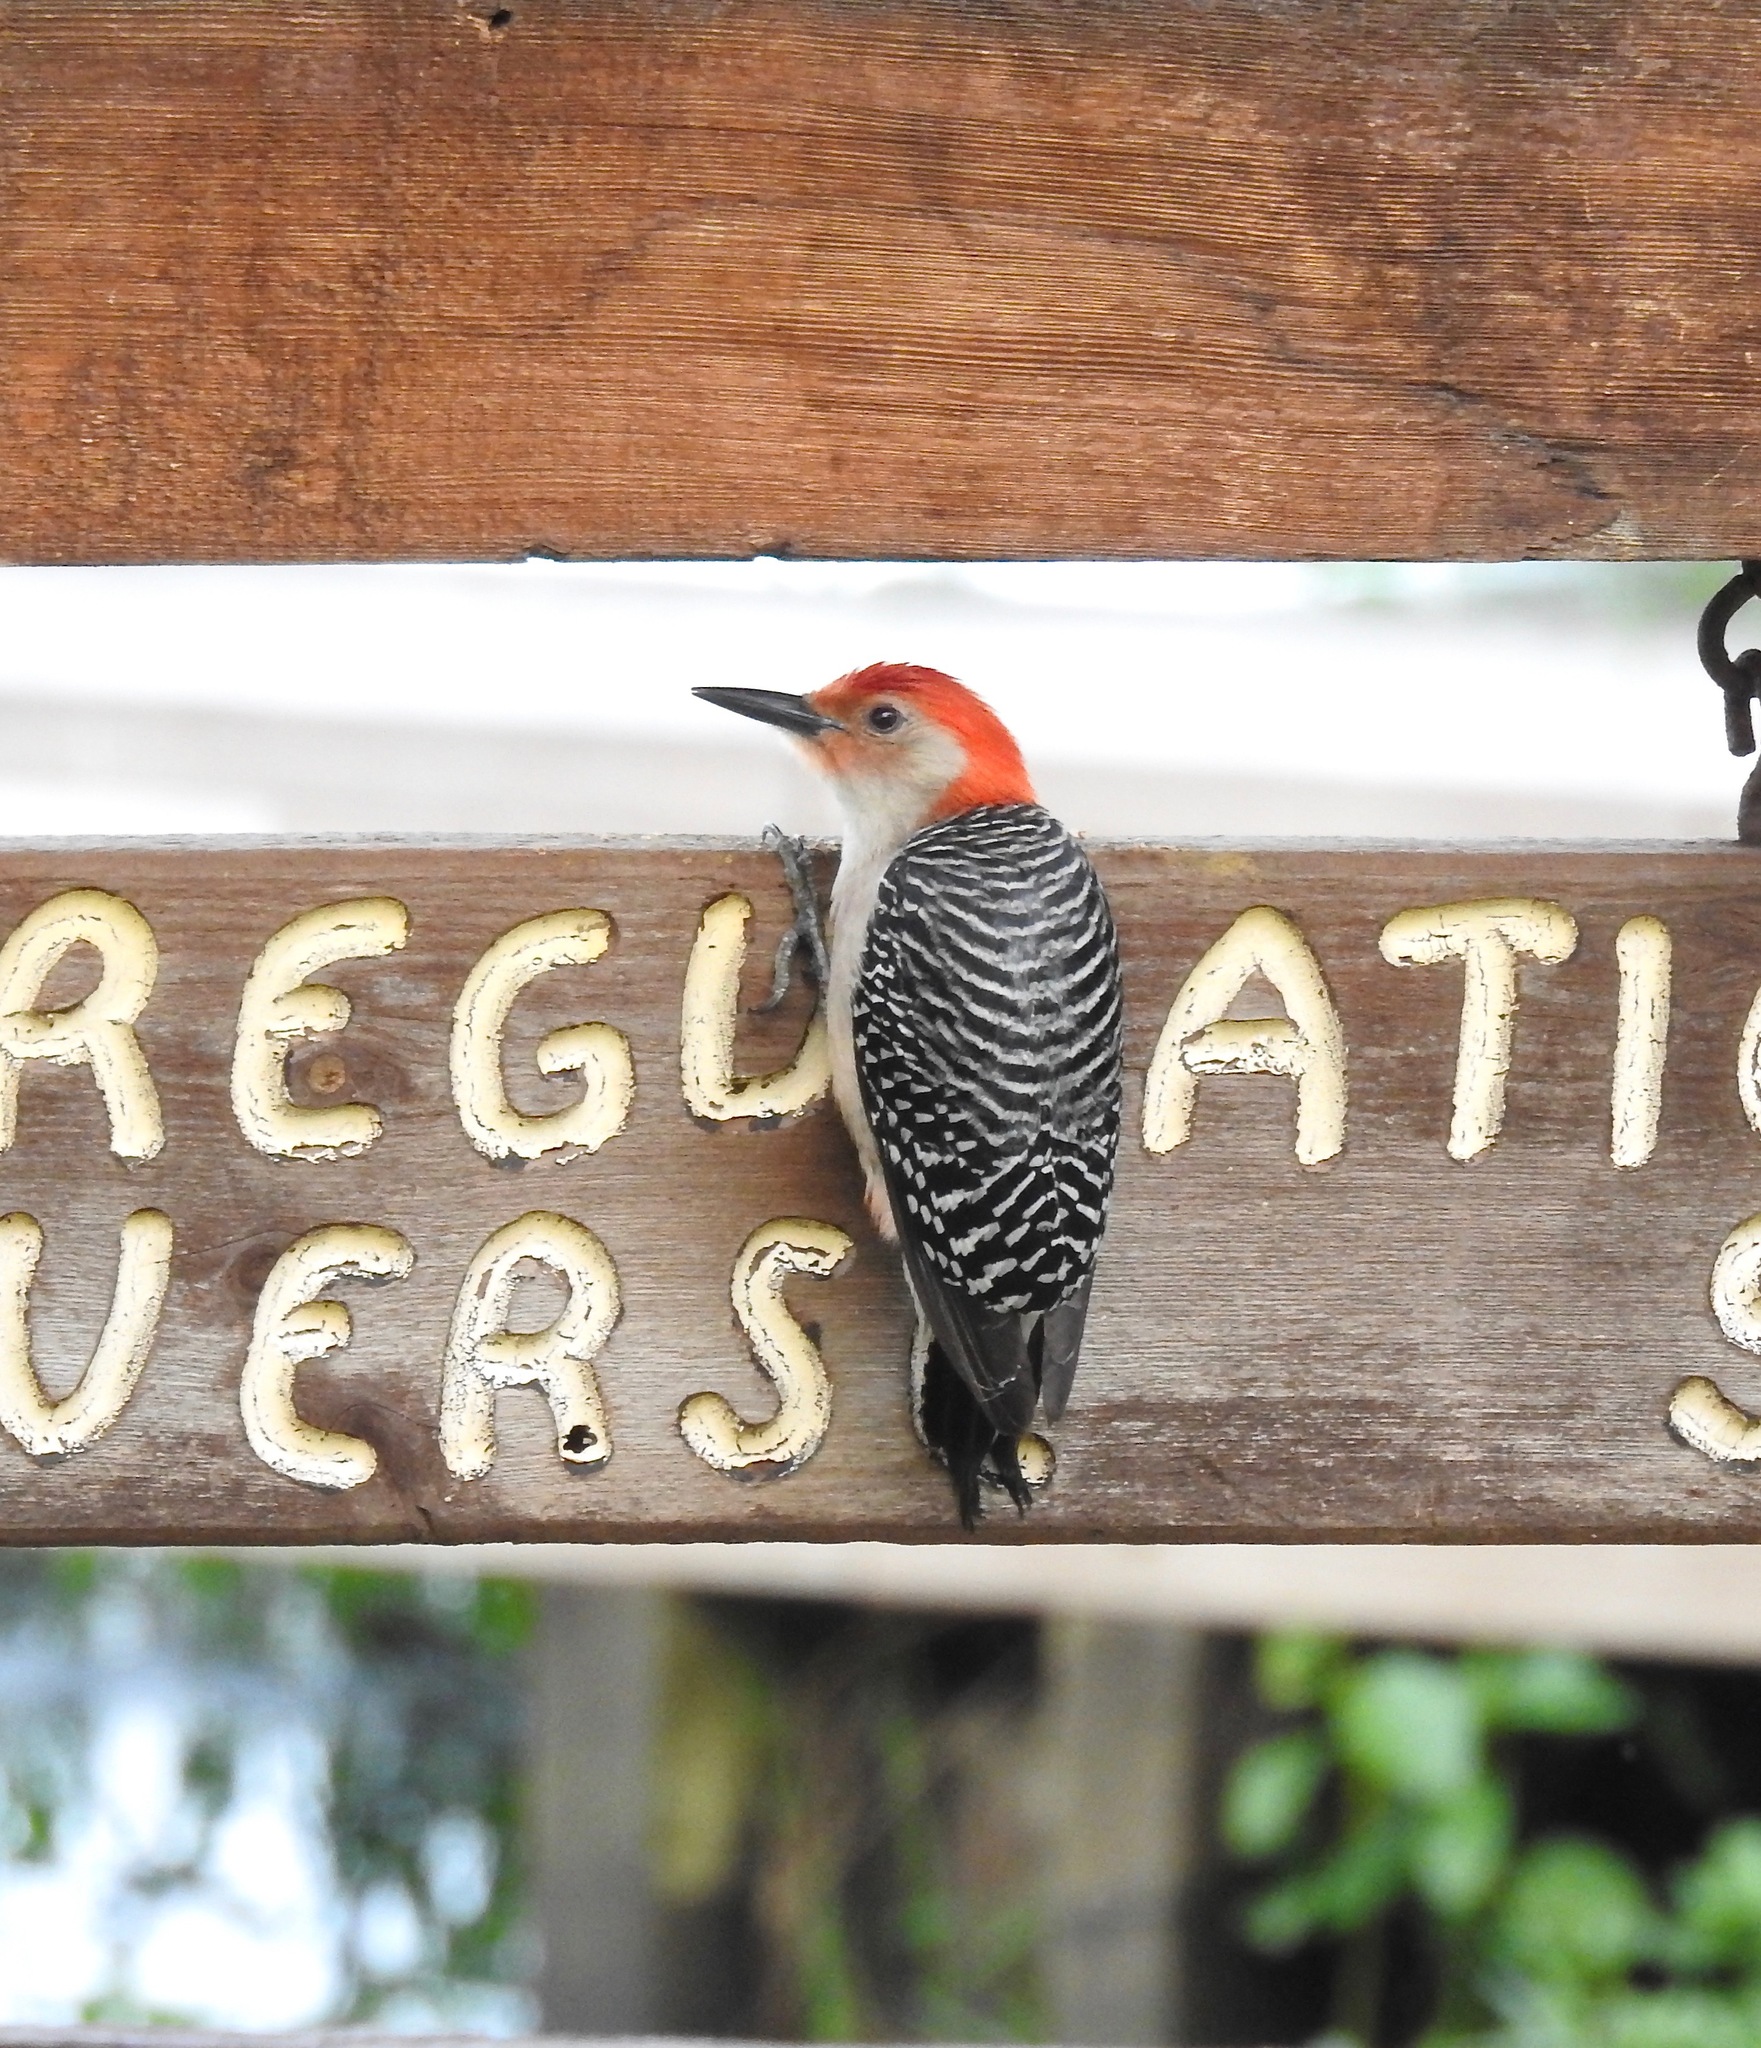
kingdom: Animalia
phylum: Chordata
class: Aves
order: Piciformes
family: Picidae
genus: Melanerpes
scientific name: Melanerpes carolinus
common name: Red-bellied woodpecker
